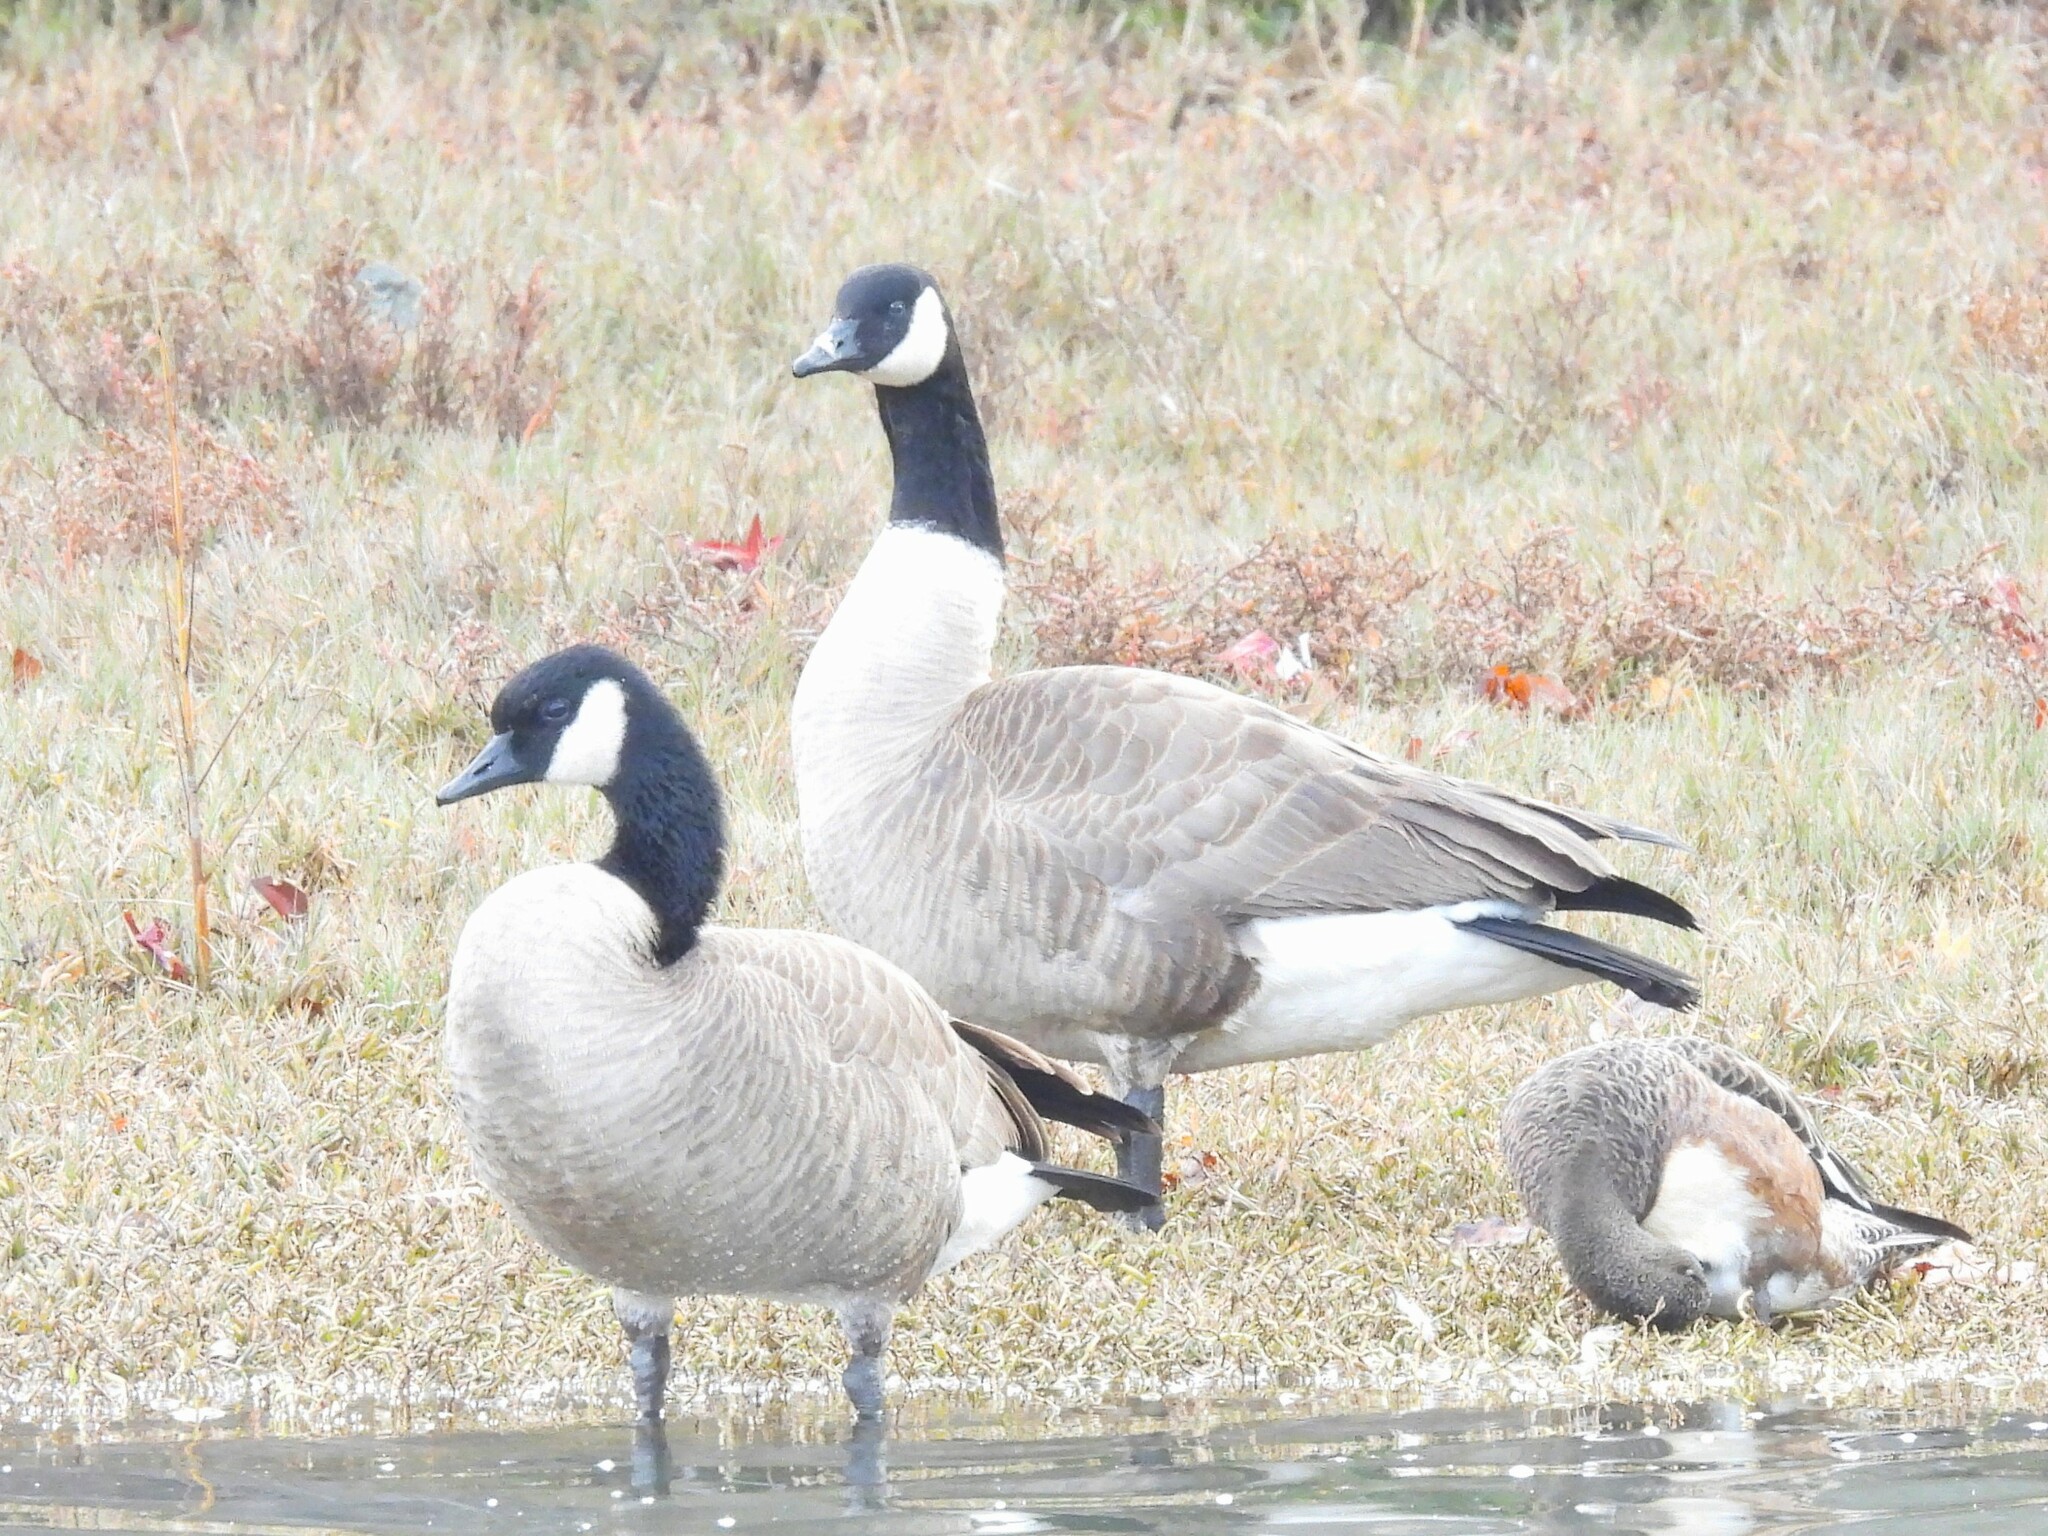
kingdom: Animalia
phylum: Chordata
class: Aves
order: Anseriformes
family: Anatidae
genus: Branta
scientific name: Branta canadensis
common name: Canada goose
